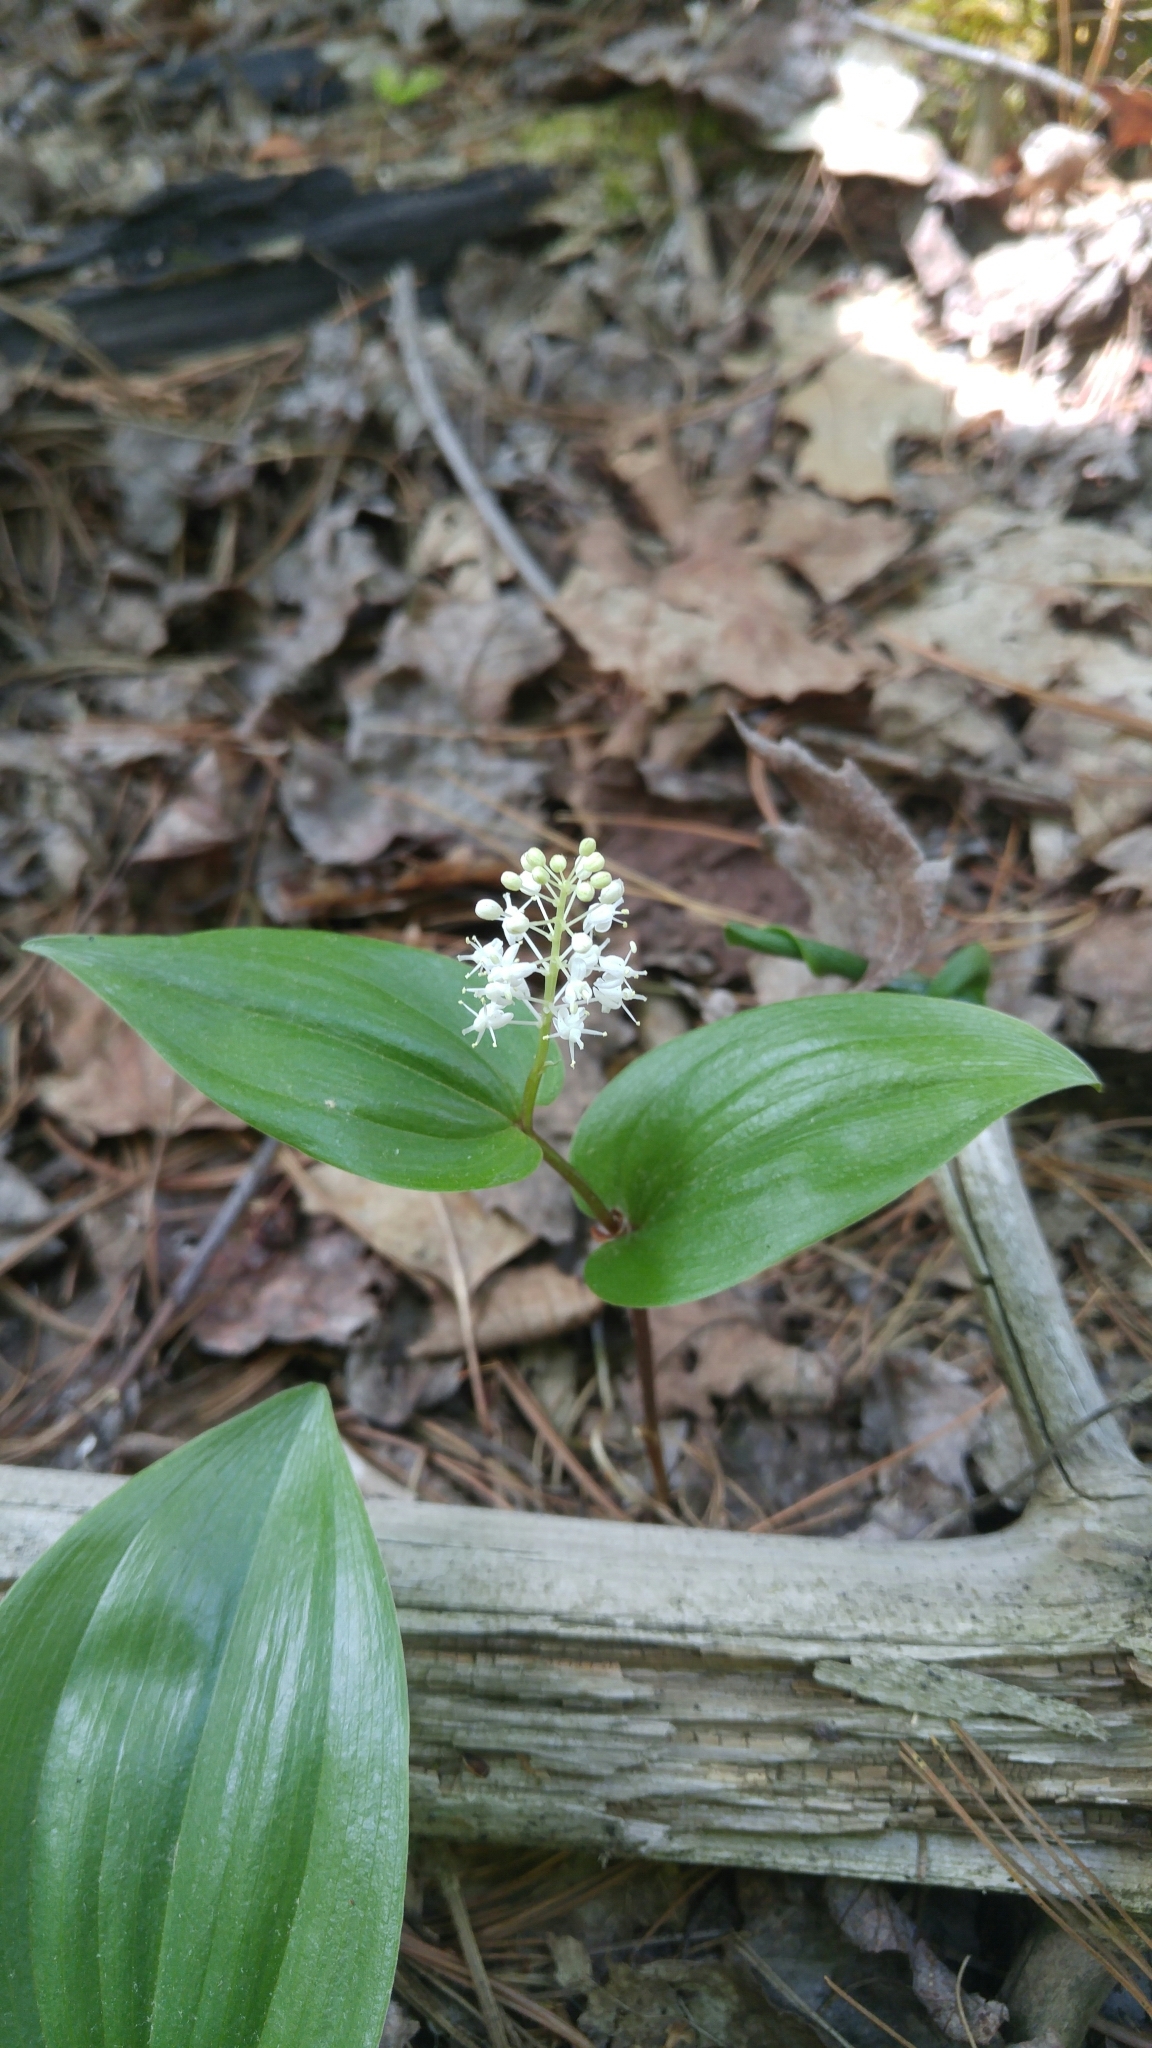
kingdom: Plantae
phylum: Tracheophyta
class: Liliopsida
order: Asparagales
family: Asparagaceae
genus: Maianthemum
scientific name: Maianthemum canadense
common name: False lily-of-the-valley
